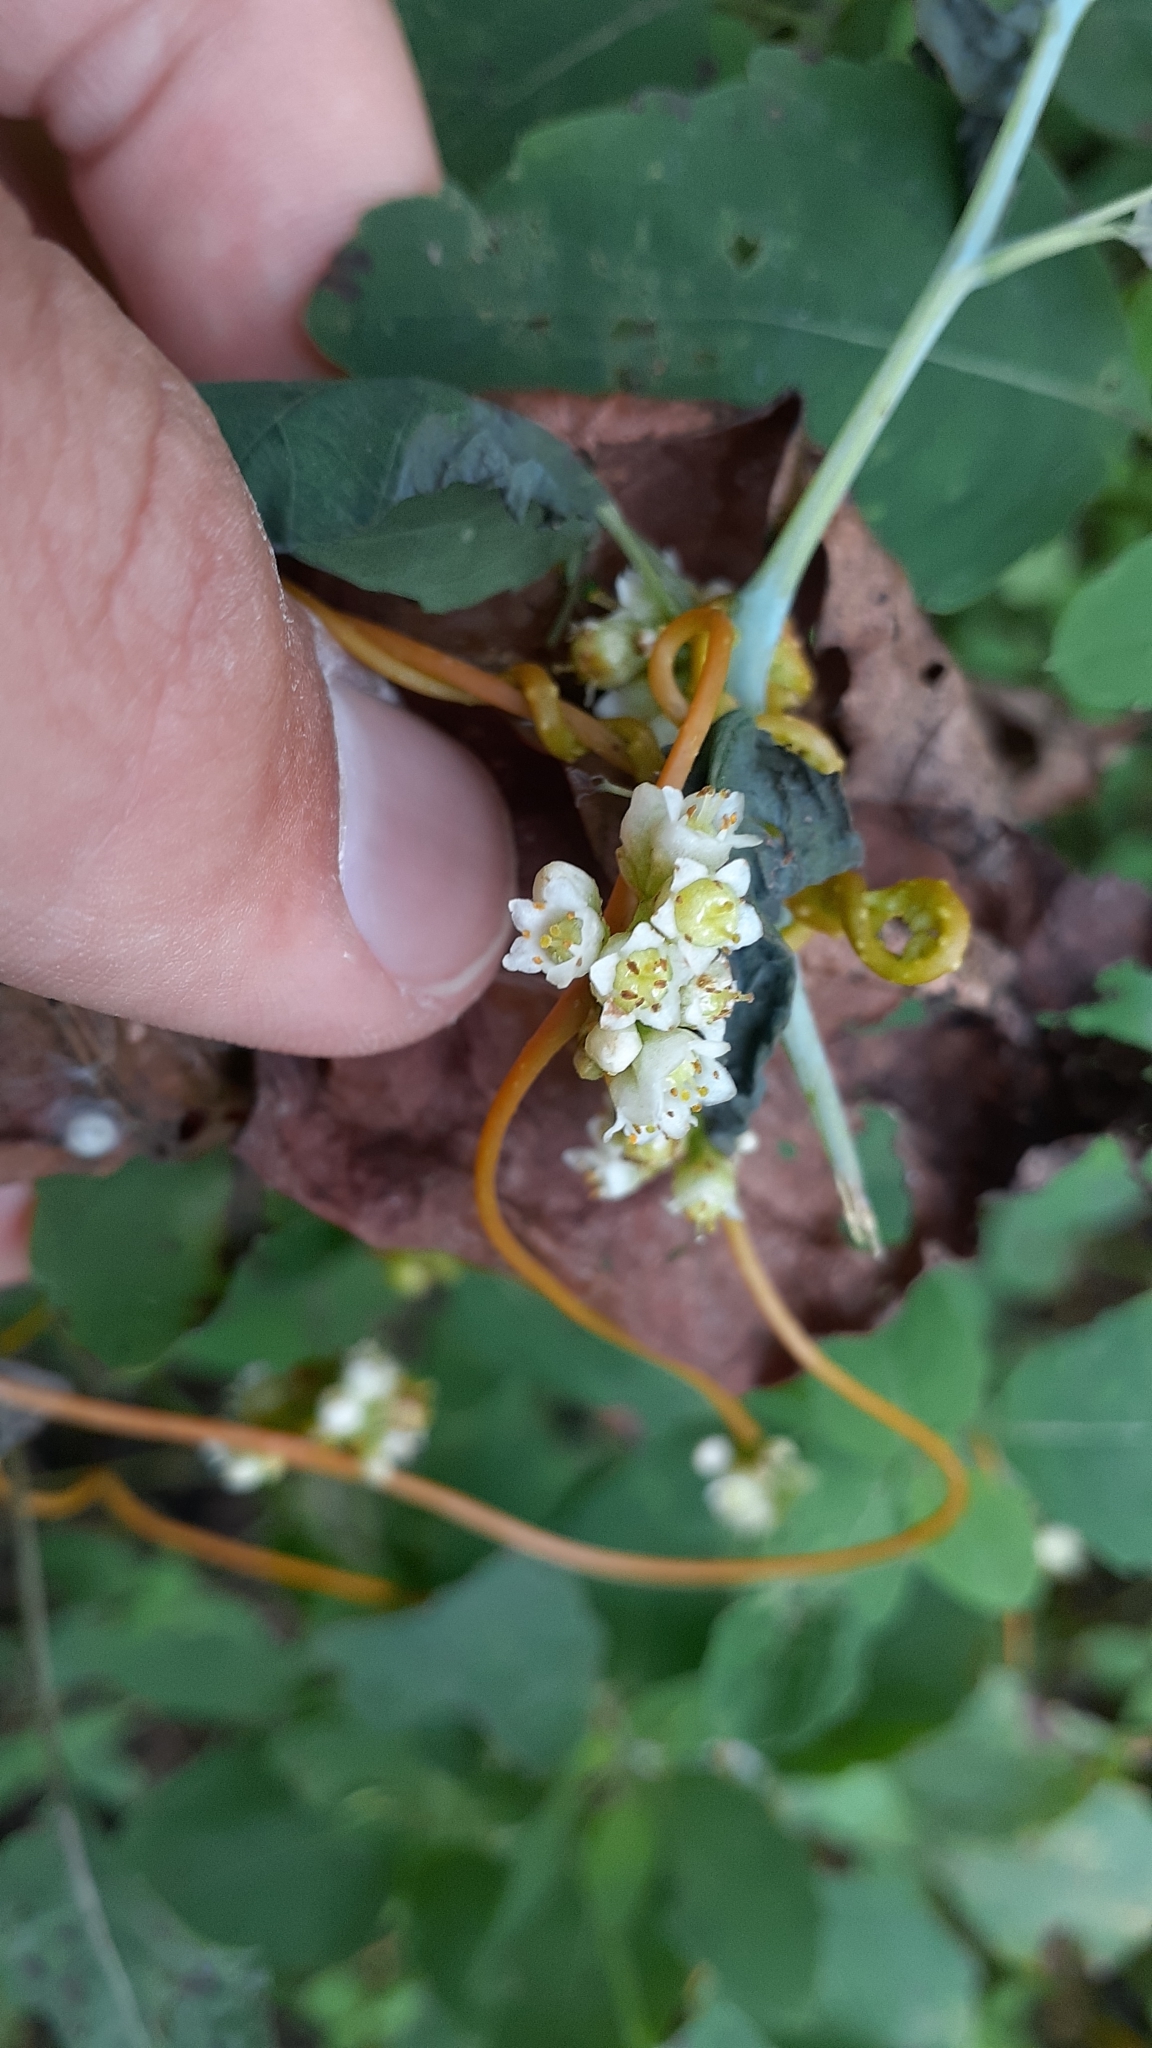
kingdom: Plantae
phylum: Tracheophyta
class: Magnoliopsida
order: Solanales
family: Convolvulaceae
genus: Cuscuta
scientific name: Cuscuta gronovii
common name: Common dodder
